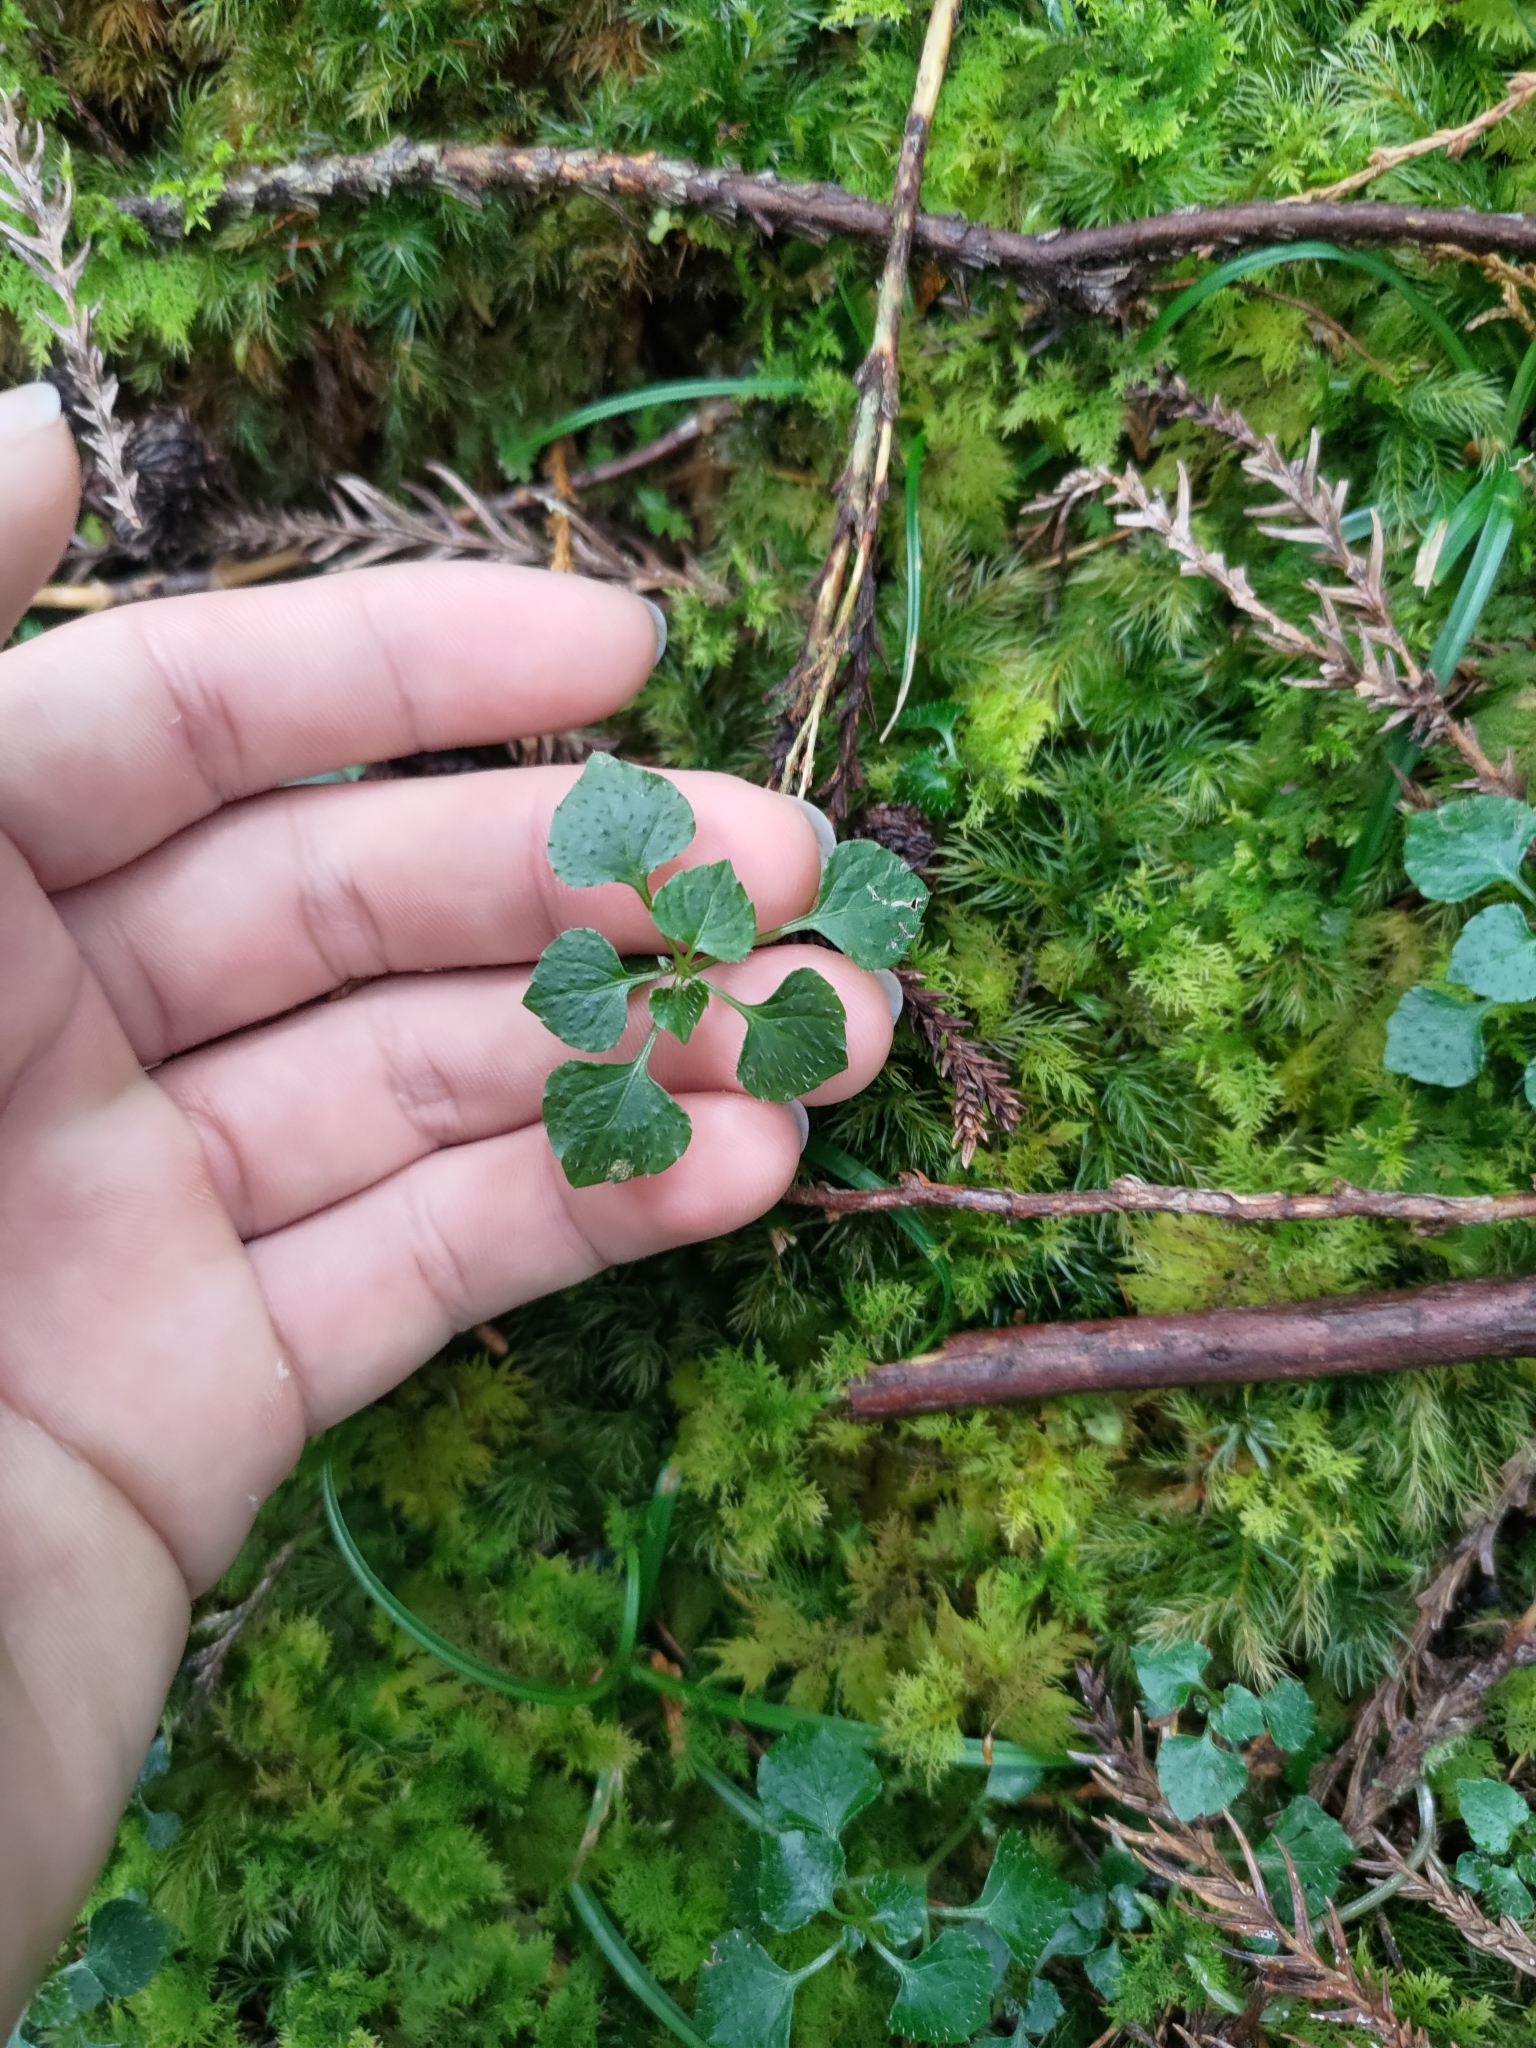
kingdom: Plantae
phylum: Tracheophyta
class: Magnoliopsida
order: Asterales
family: Campanulaceae
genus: Peracarpa
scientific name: Peracarpa carnosa
